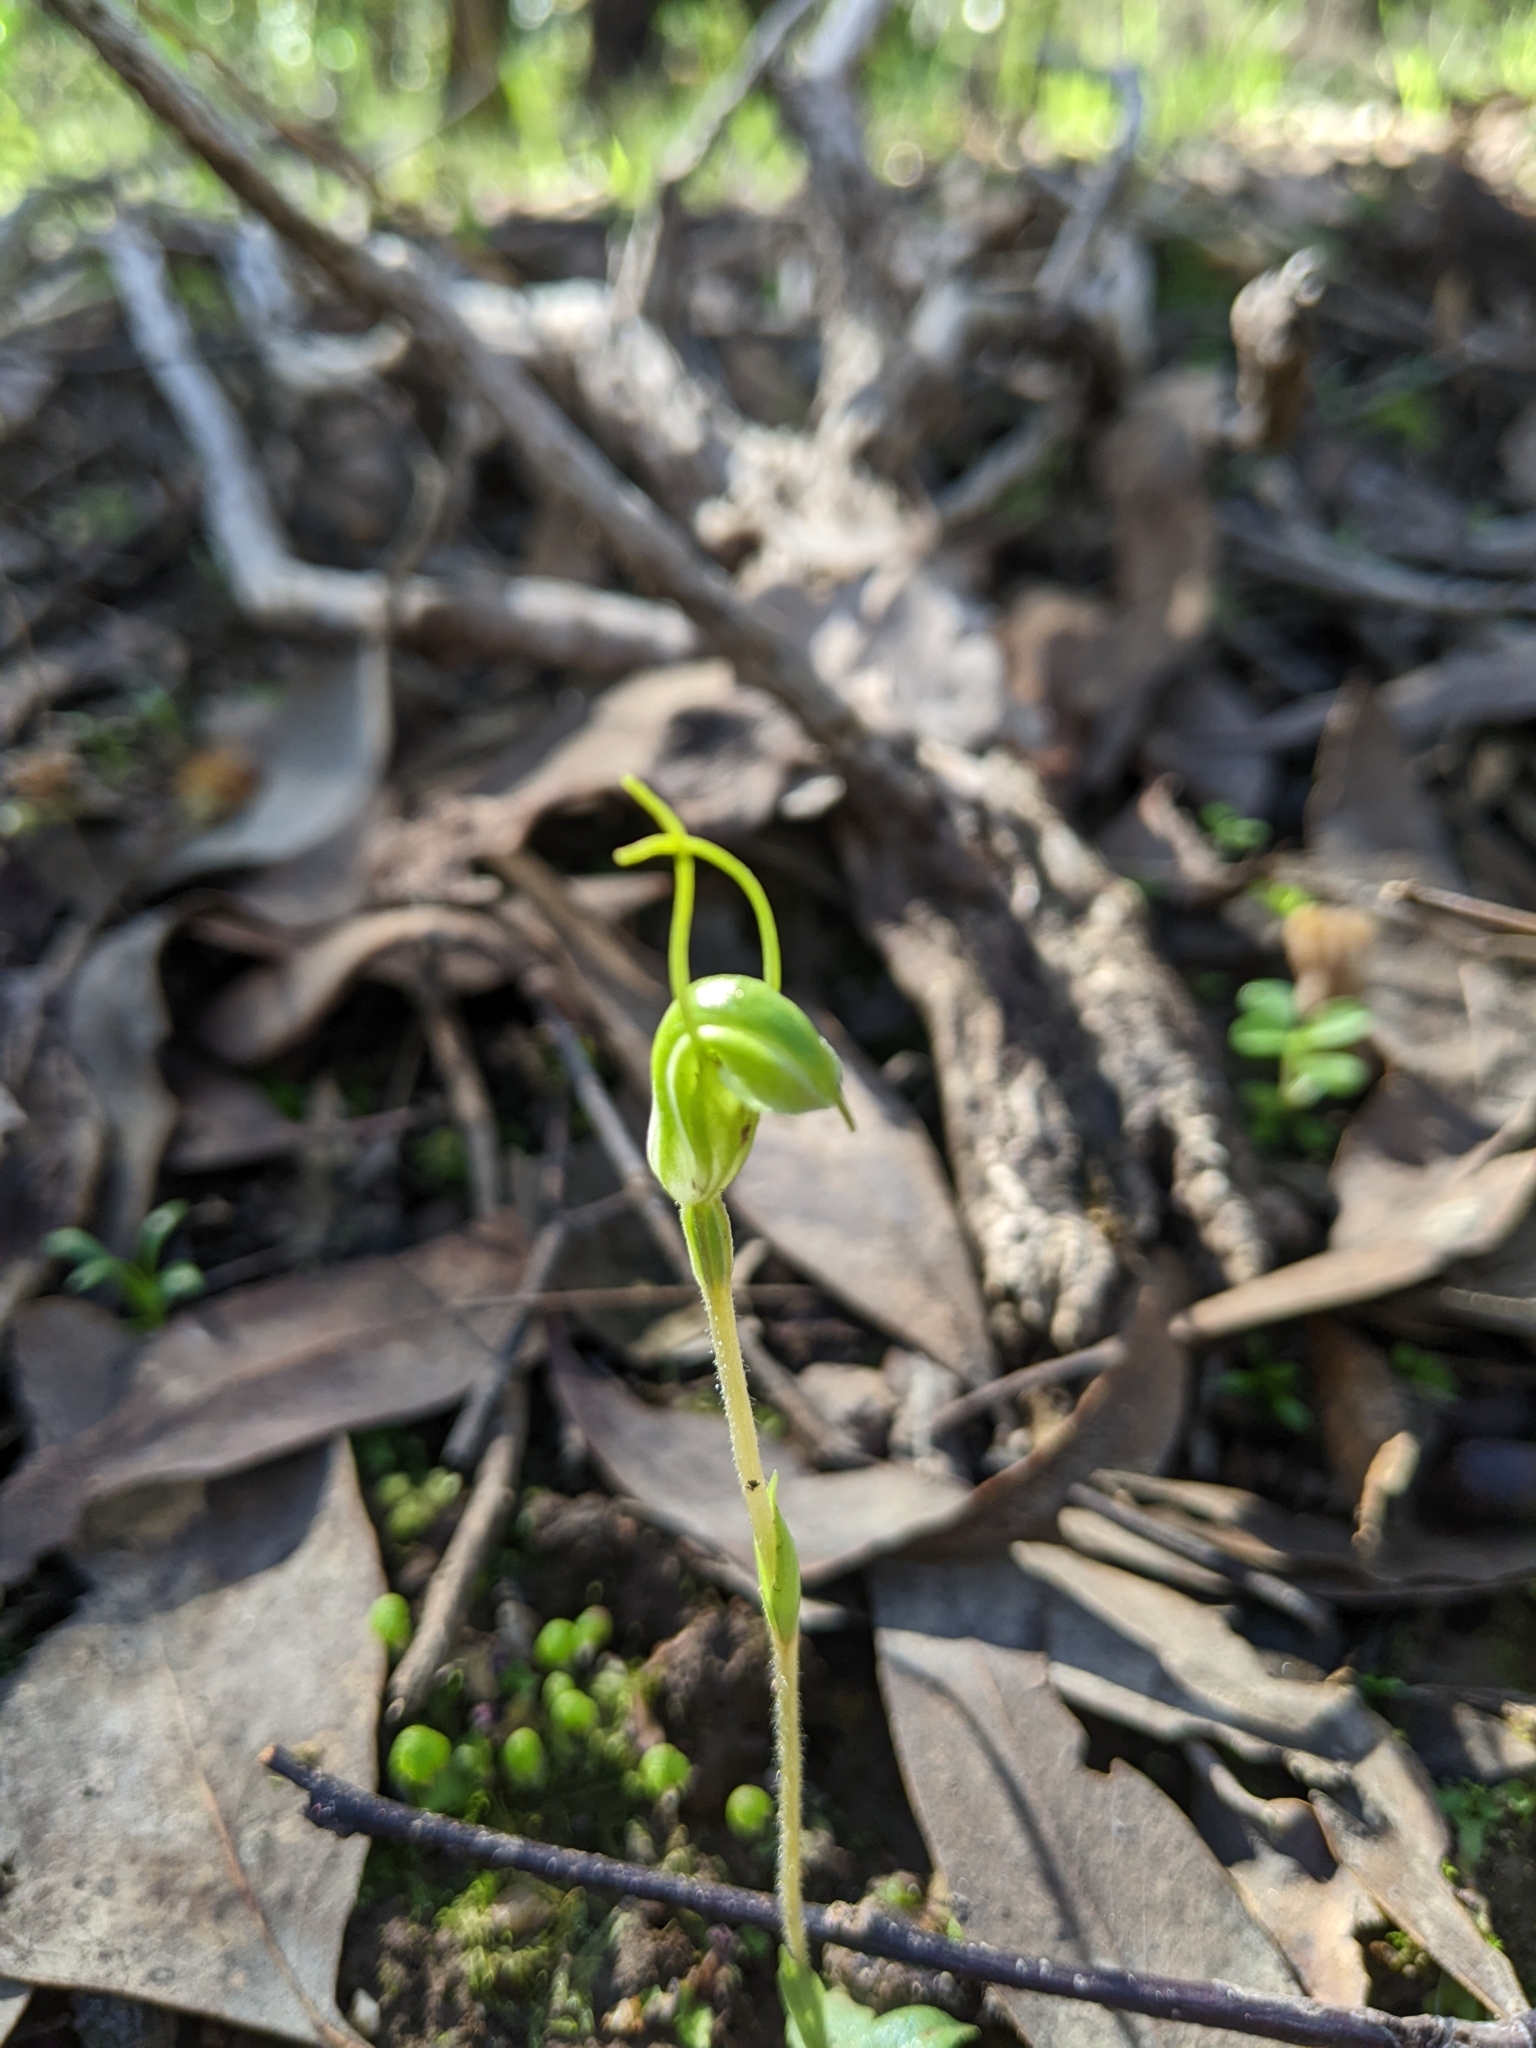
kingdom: Plantae
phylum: Tracheophyta
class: Liliopsida
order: Asparagales
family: Orchidaceae
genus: Pterostylis
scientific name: Pterostylis nana
